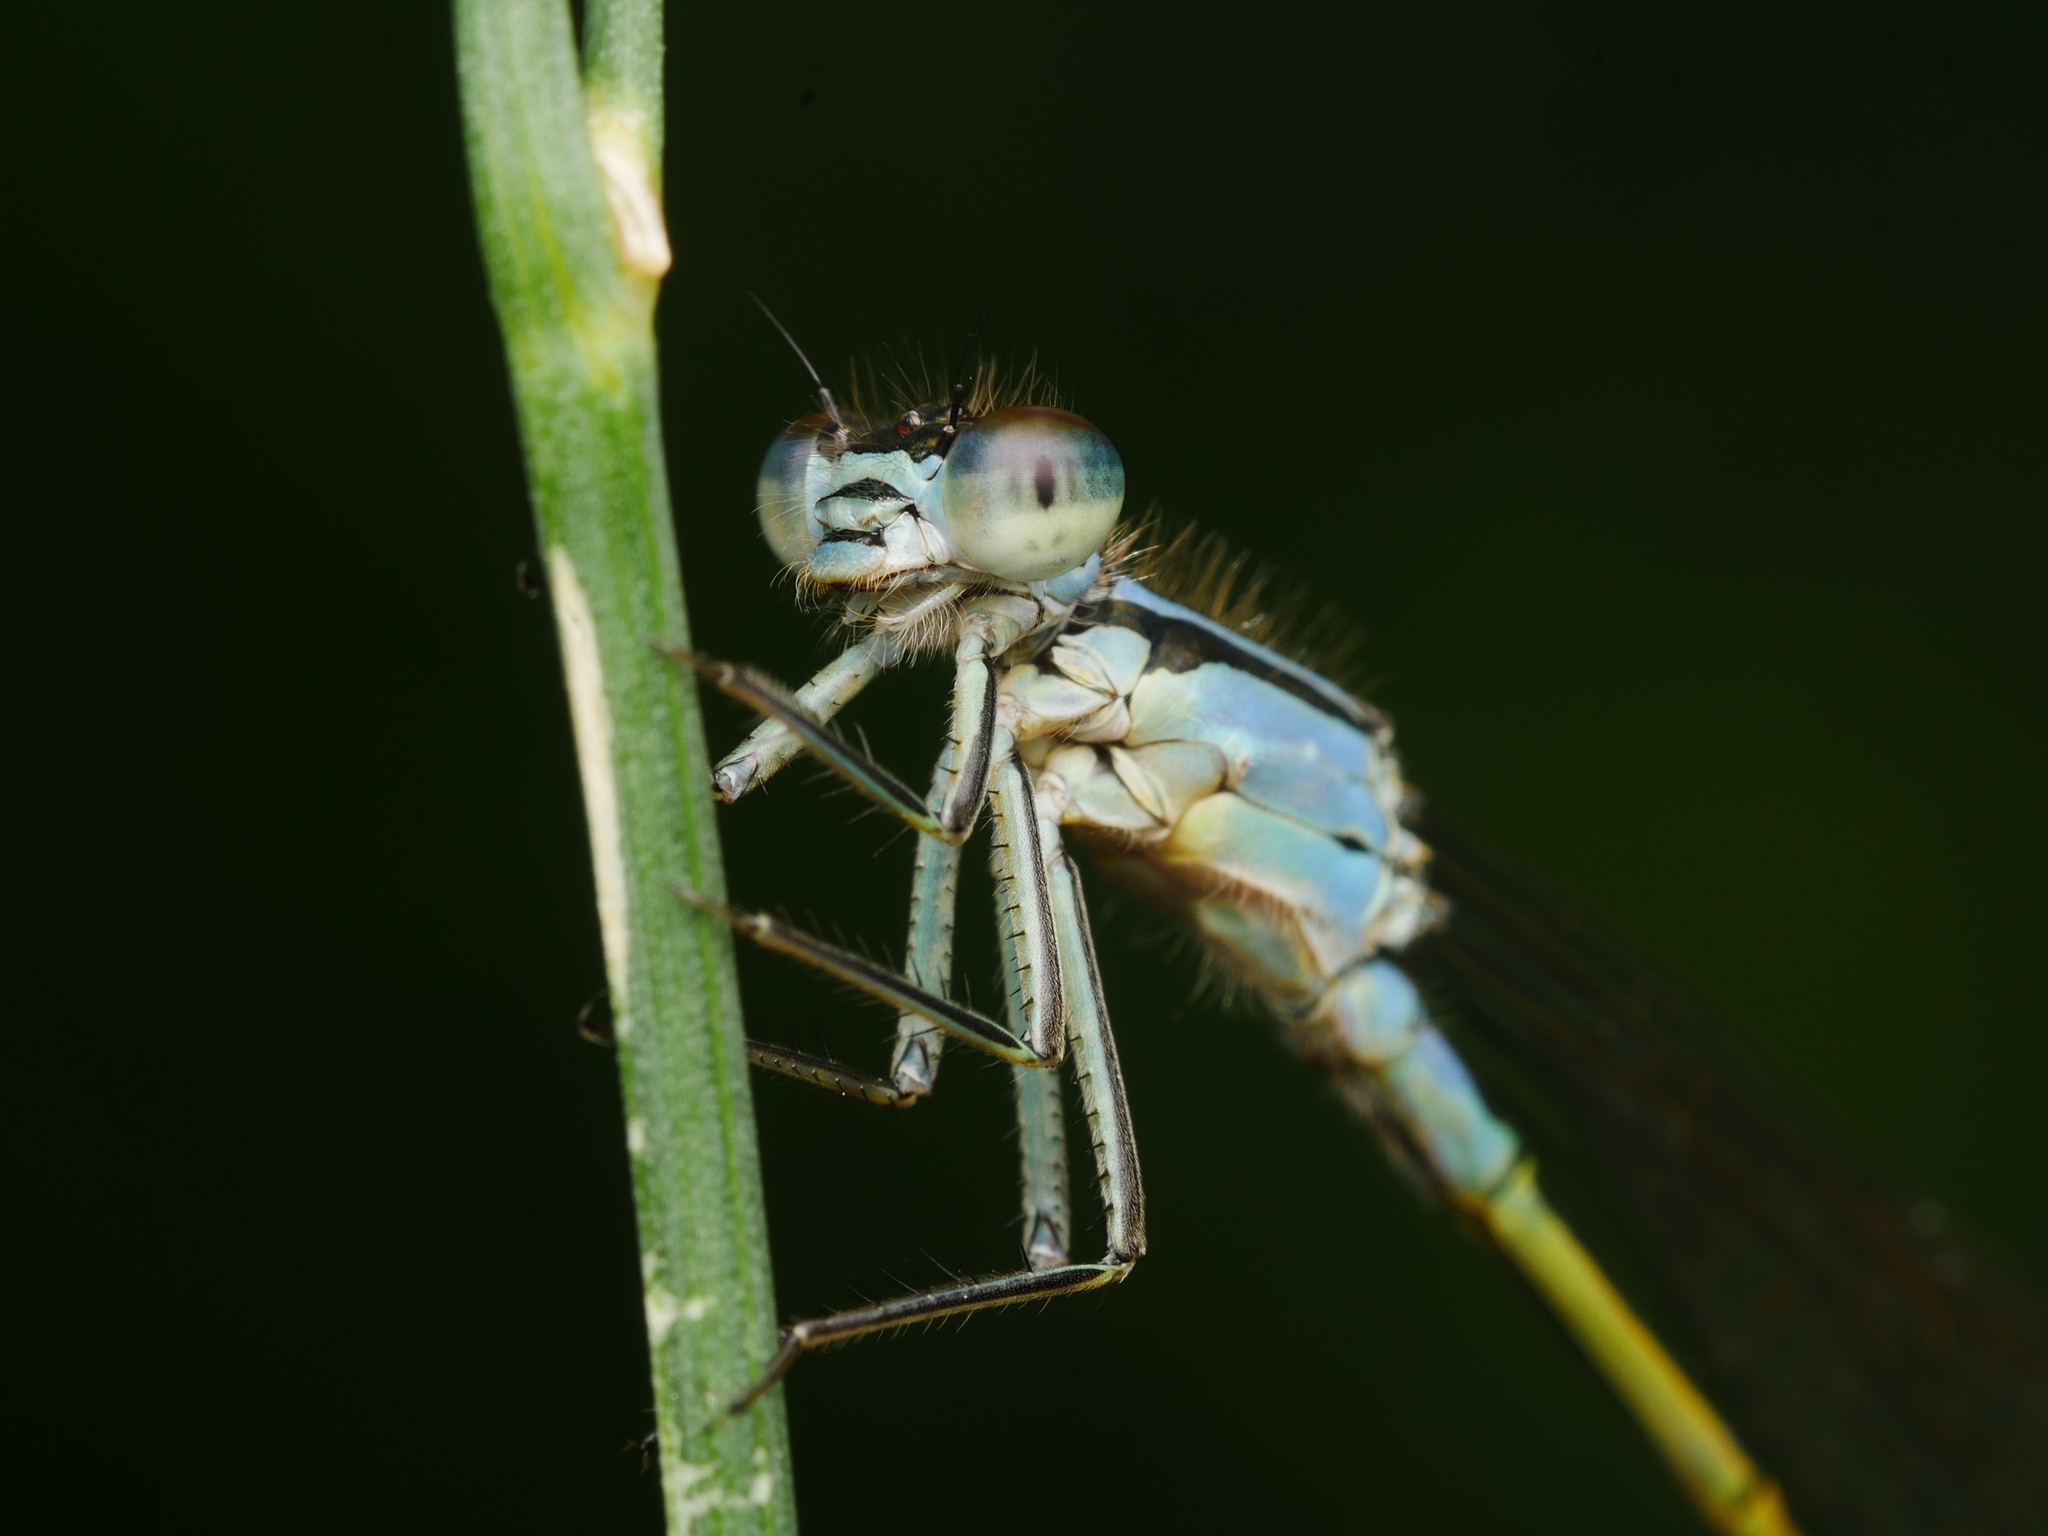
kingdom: Animalia
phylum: Arthropoda
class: Insecta
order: Odonata
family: Coenagrionidae
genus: Ischnura
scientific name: Ischnura elegans
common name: Blue-tailed damselfly
